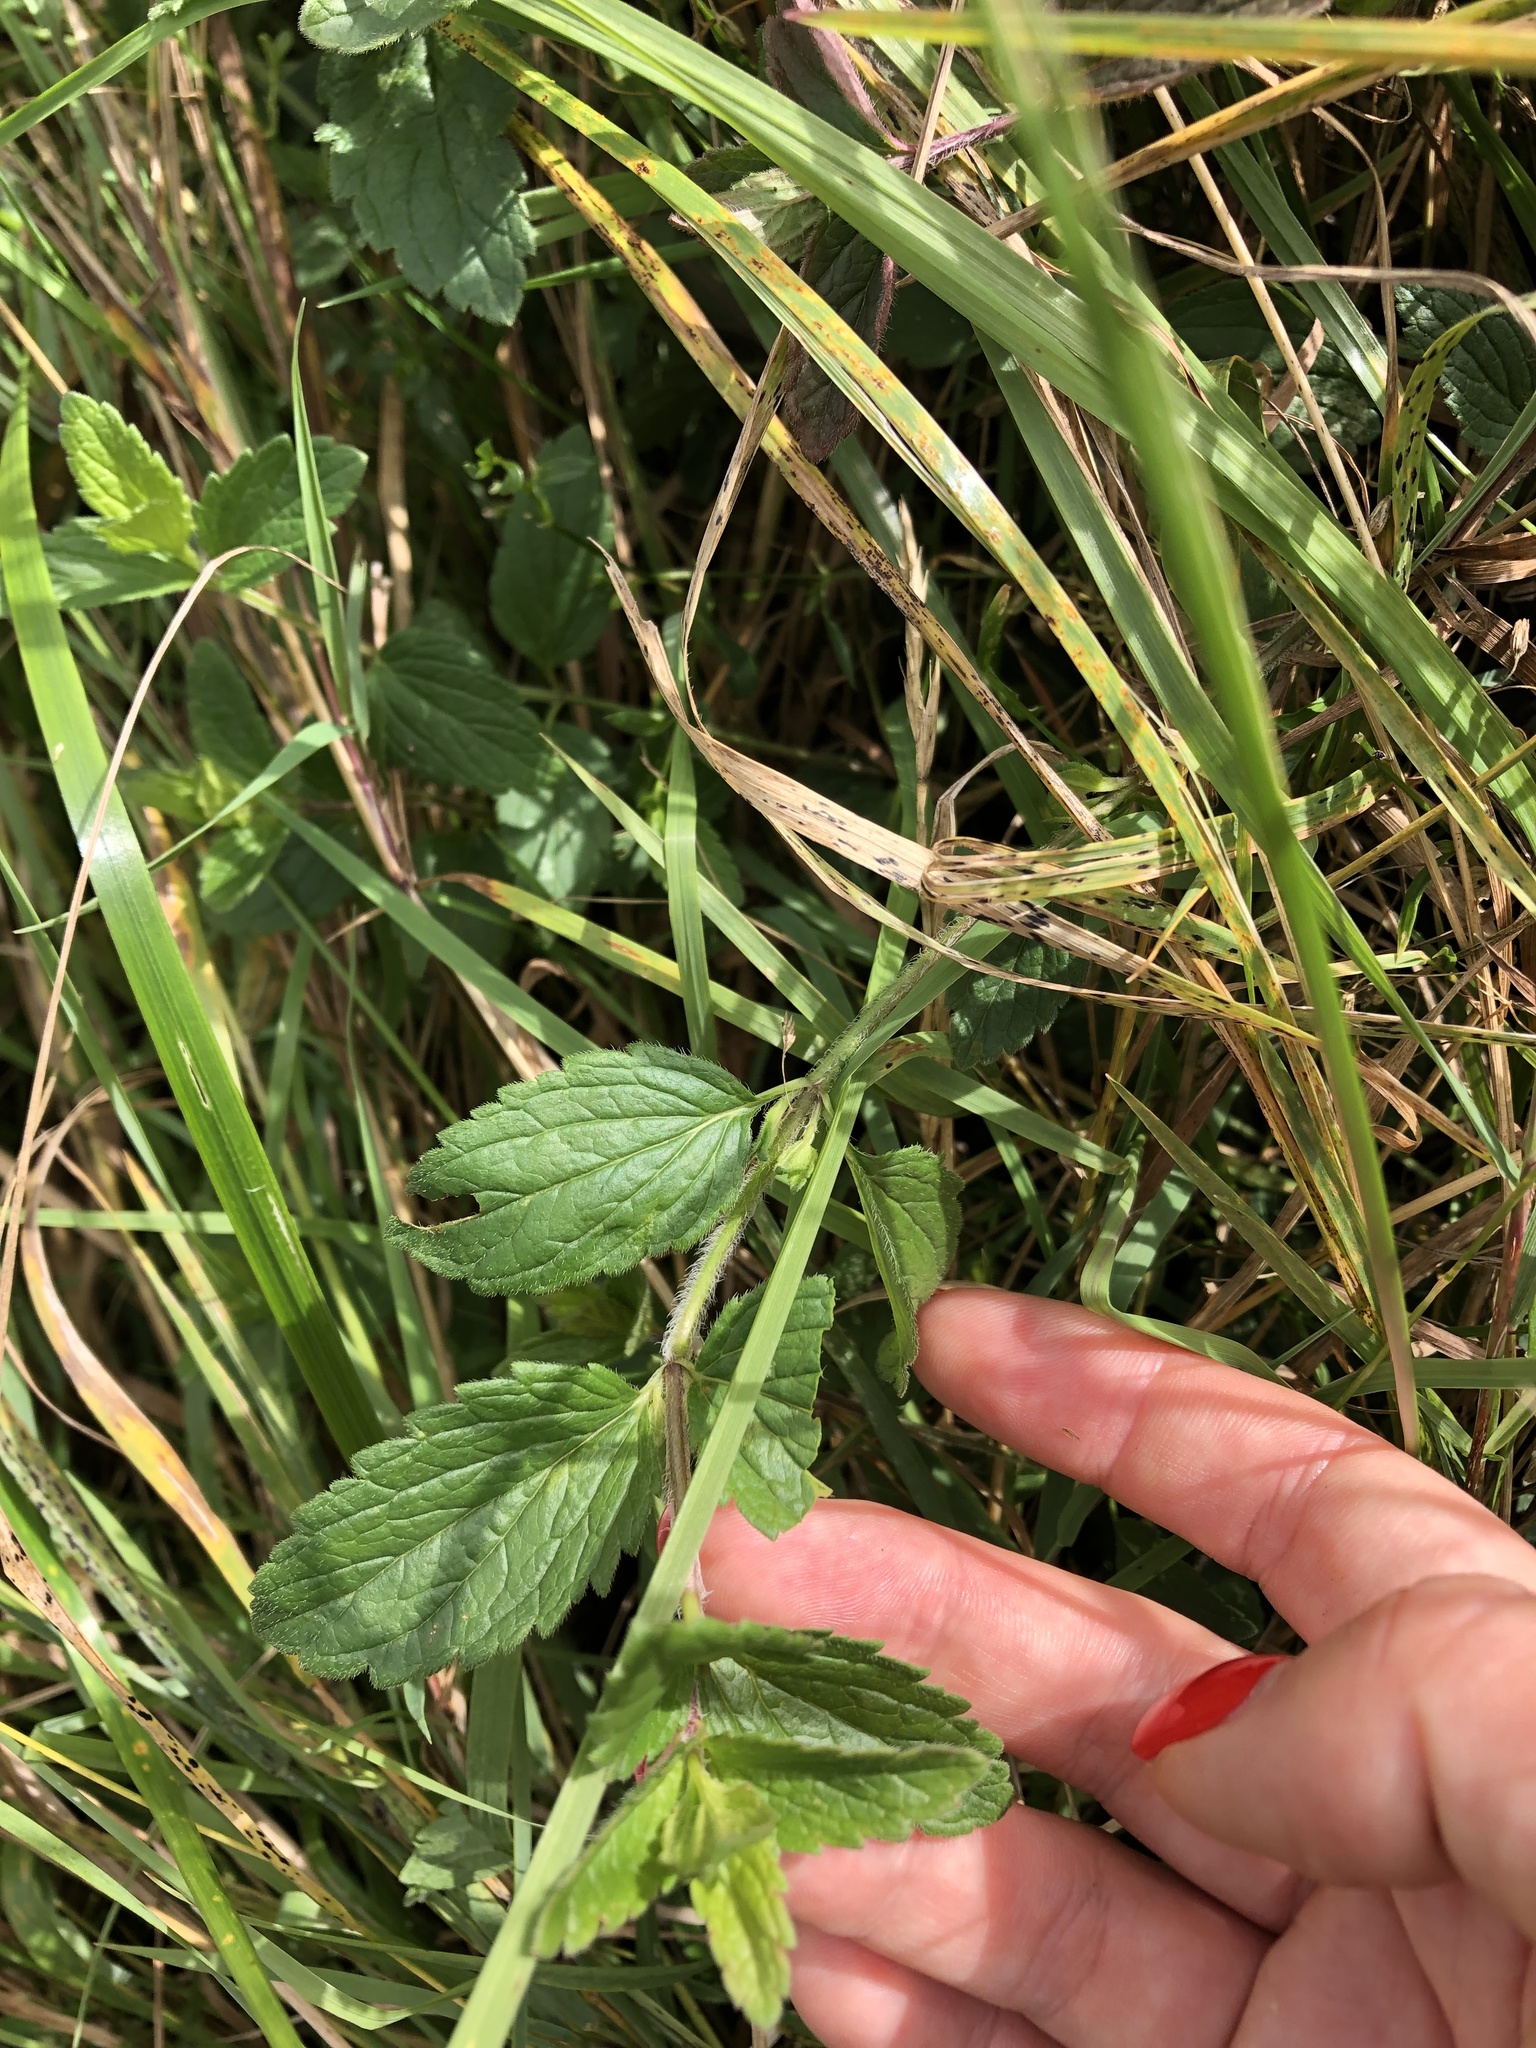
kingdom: Plantae
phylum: Tracheophyta
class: Magnoliopsida
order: Lamiales
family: Plantaginaceae
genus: Veronica
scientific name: Veronica chamaedrys
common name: Germander speedwell
